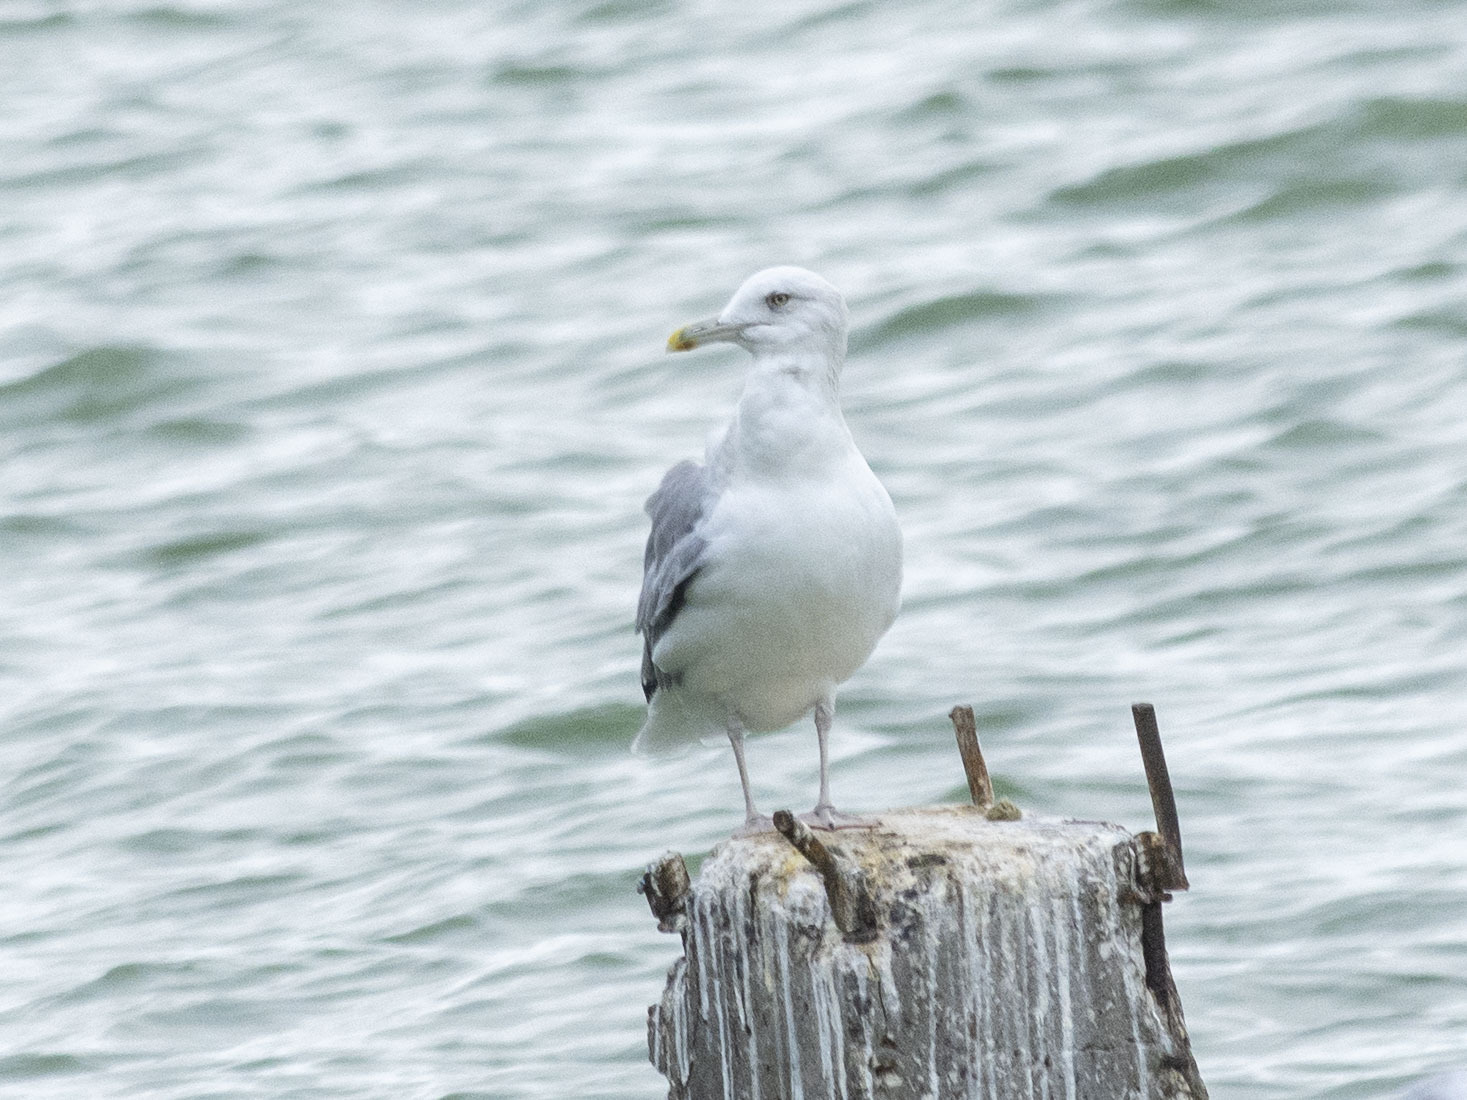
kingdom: Animalia
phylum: Chordata
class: Aves
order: Charadriiformes
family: Laridae
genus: Larus
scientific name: Larus argentatus
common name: Herring gull
